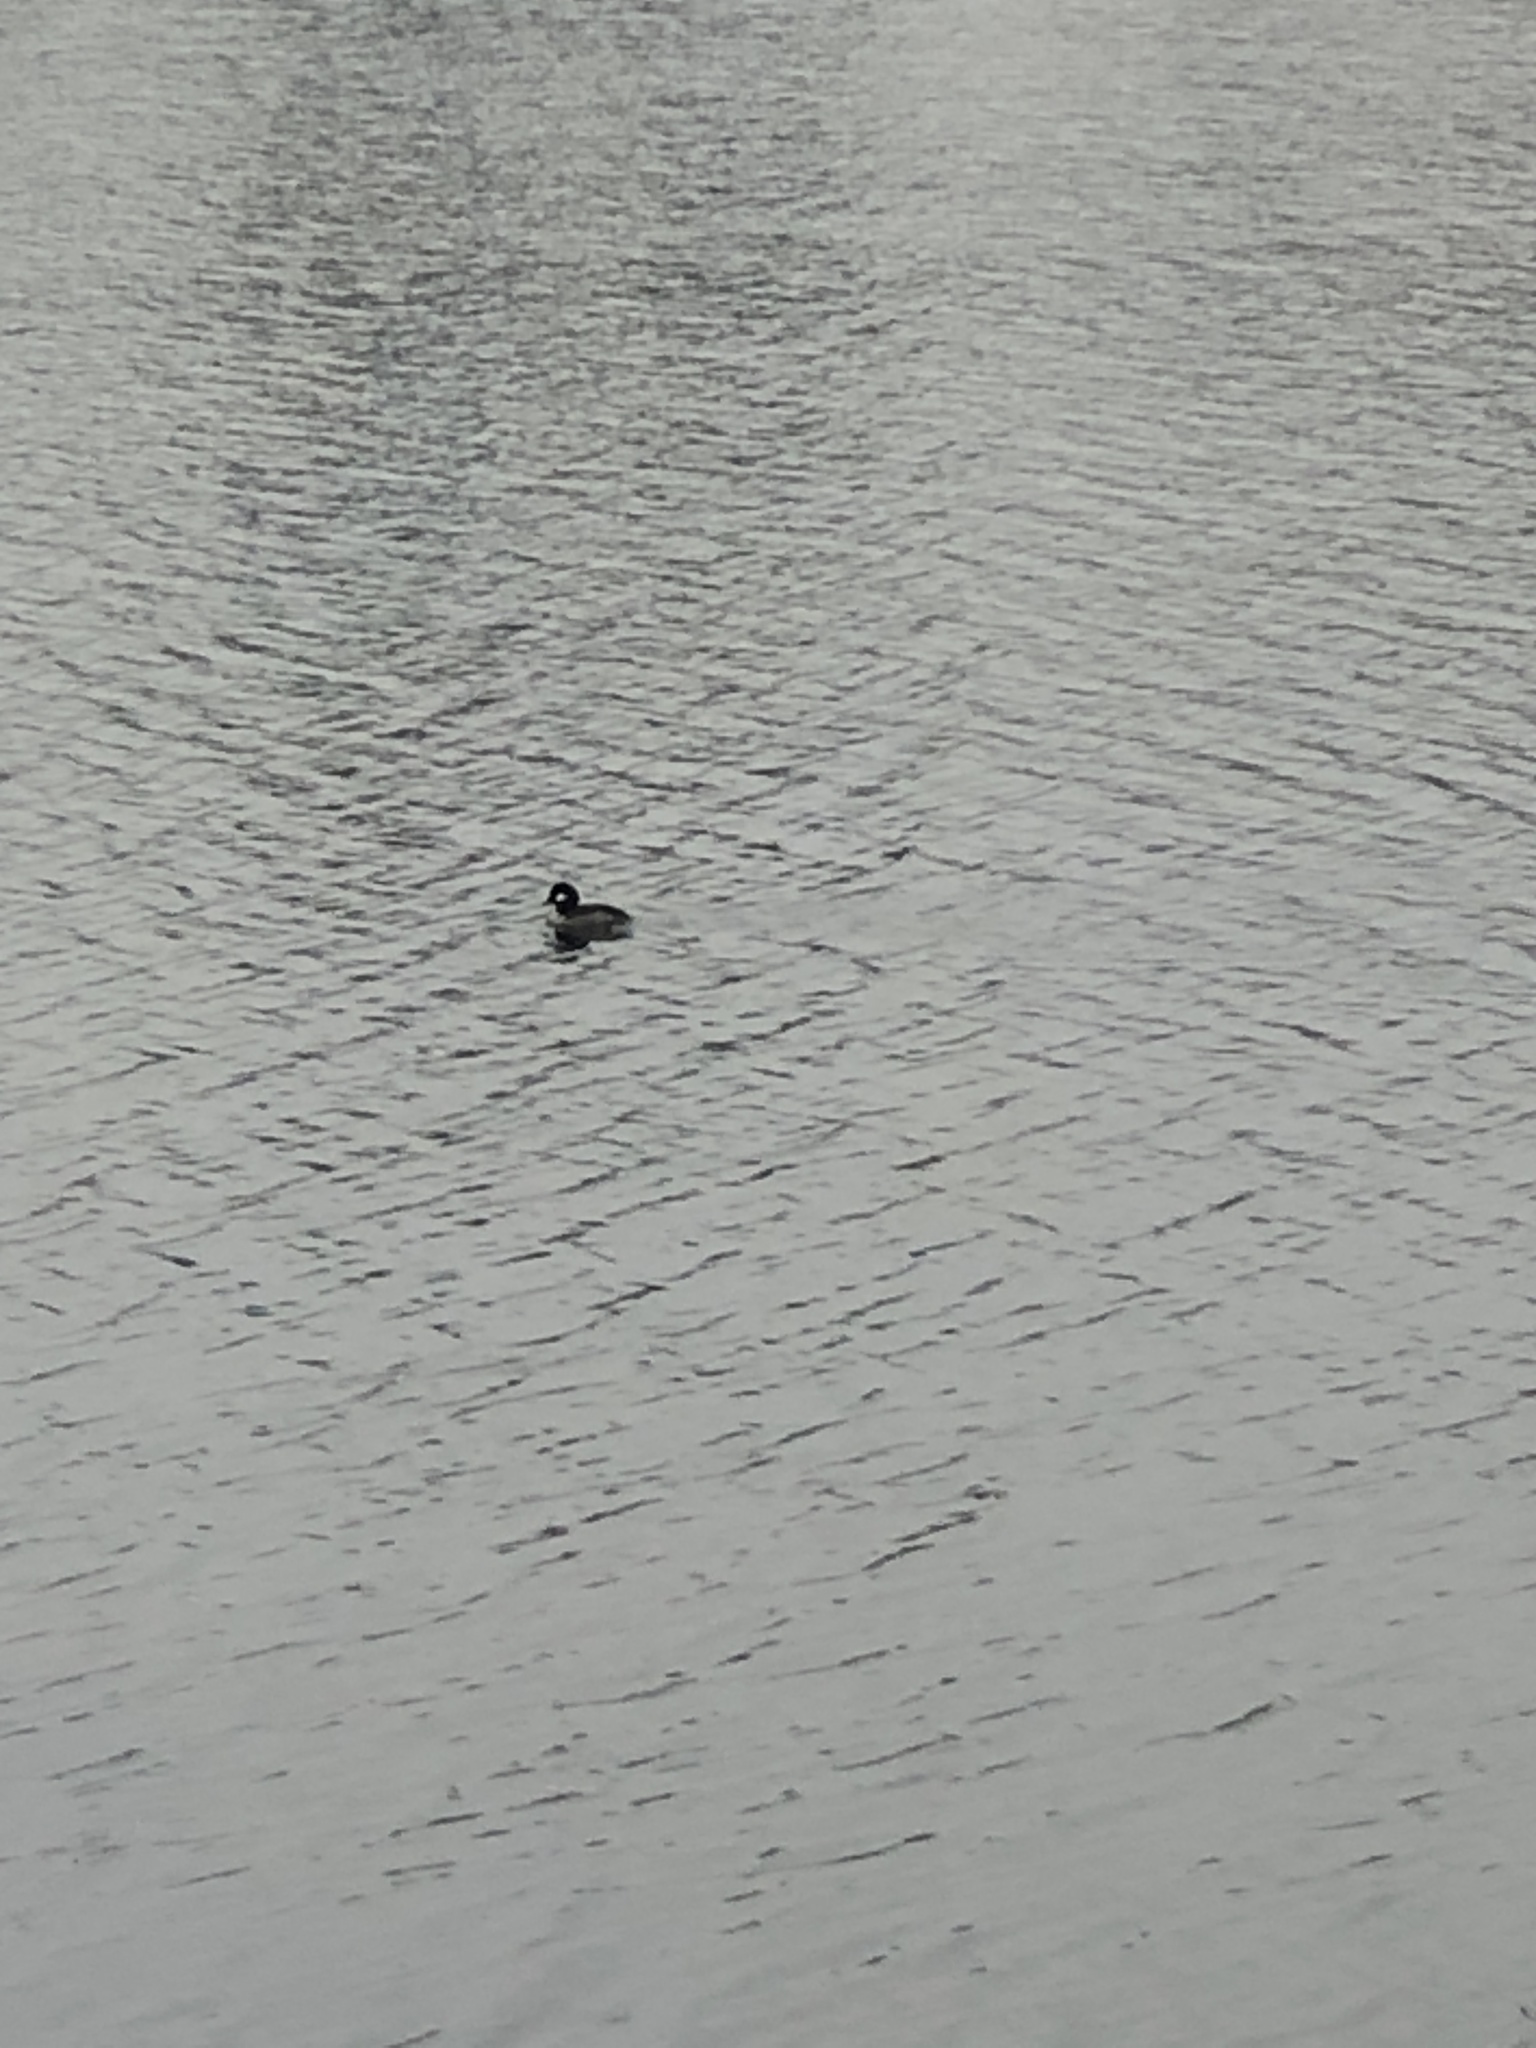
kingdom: Animalia
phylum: Chordata
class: Aves
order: Anseriformes
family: Anatidae
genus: Bucephala
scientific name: Bucephala albeola
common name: Bufflehead
